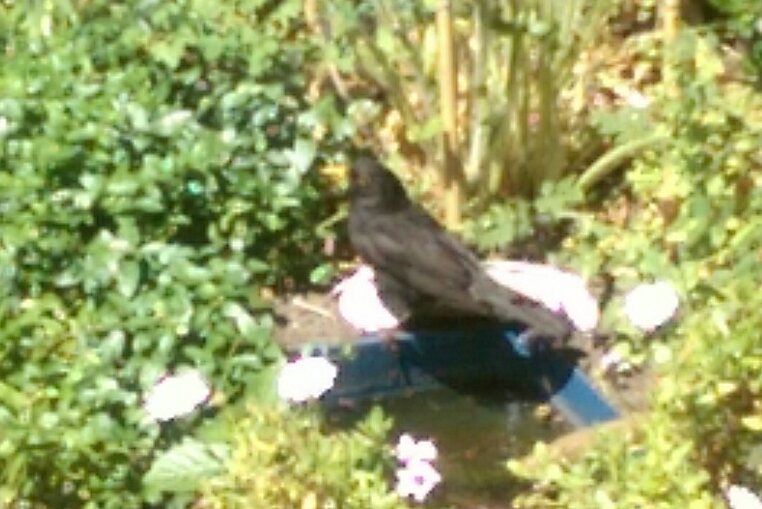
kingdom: Animalia
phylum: Chordata
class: Aves
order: Passeriformes
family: Turdidae
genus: Turdus
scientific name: Turdus merula
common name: Common blackbird
